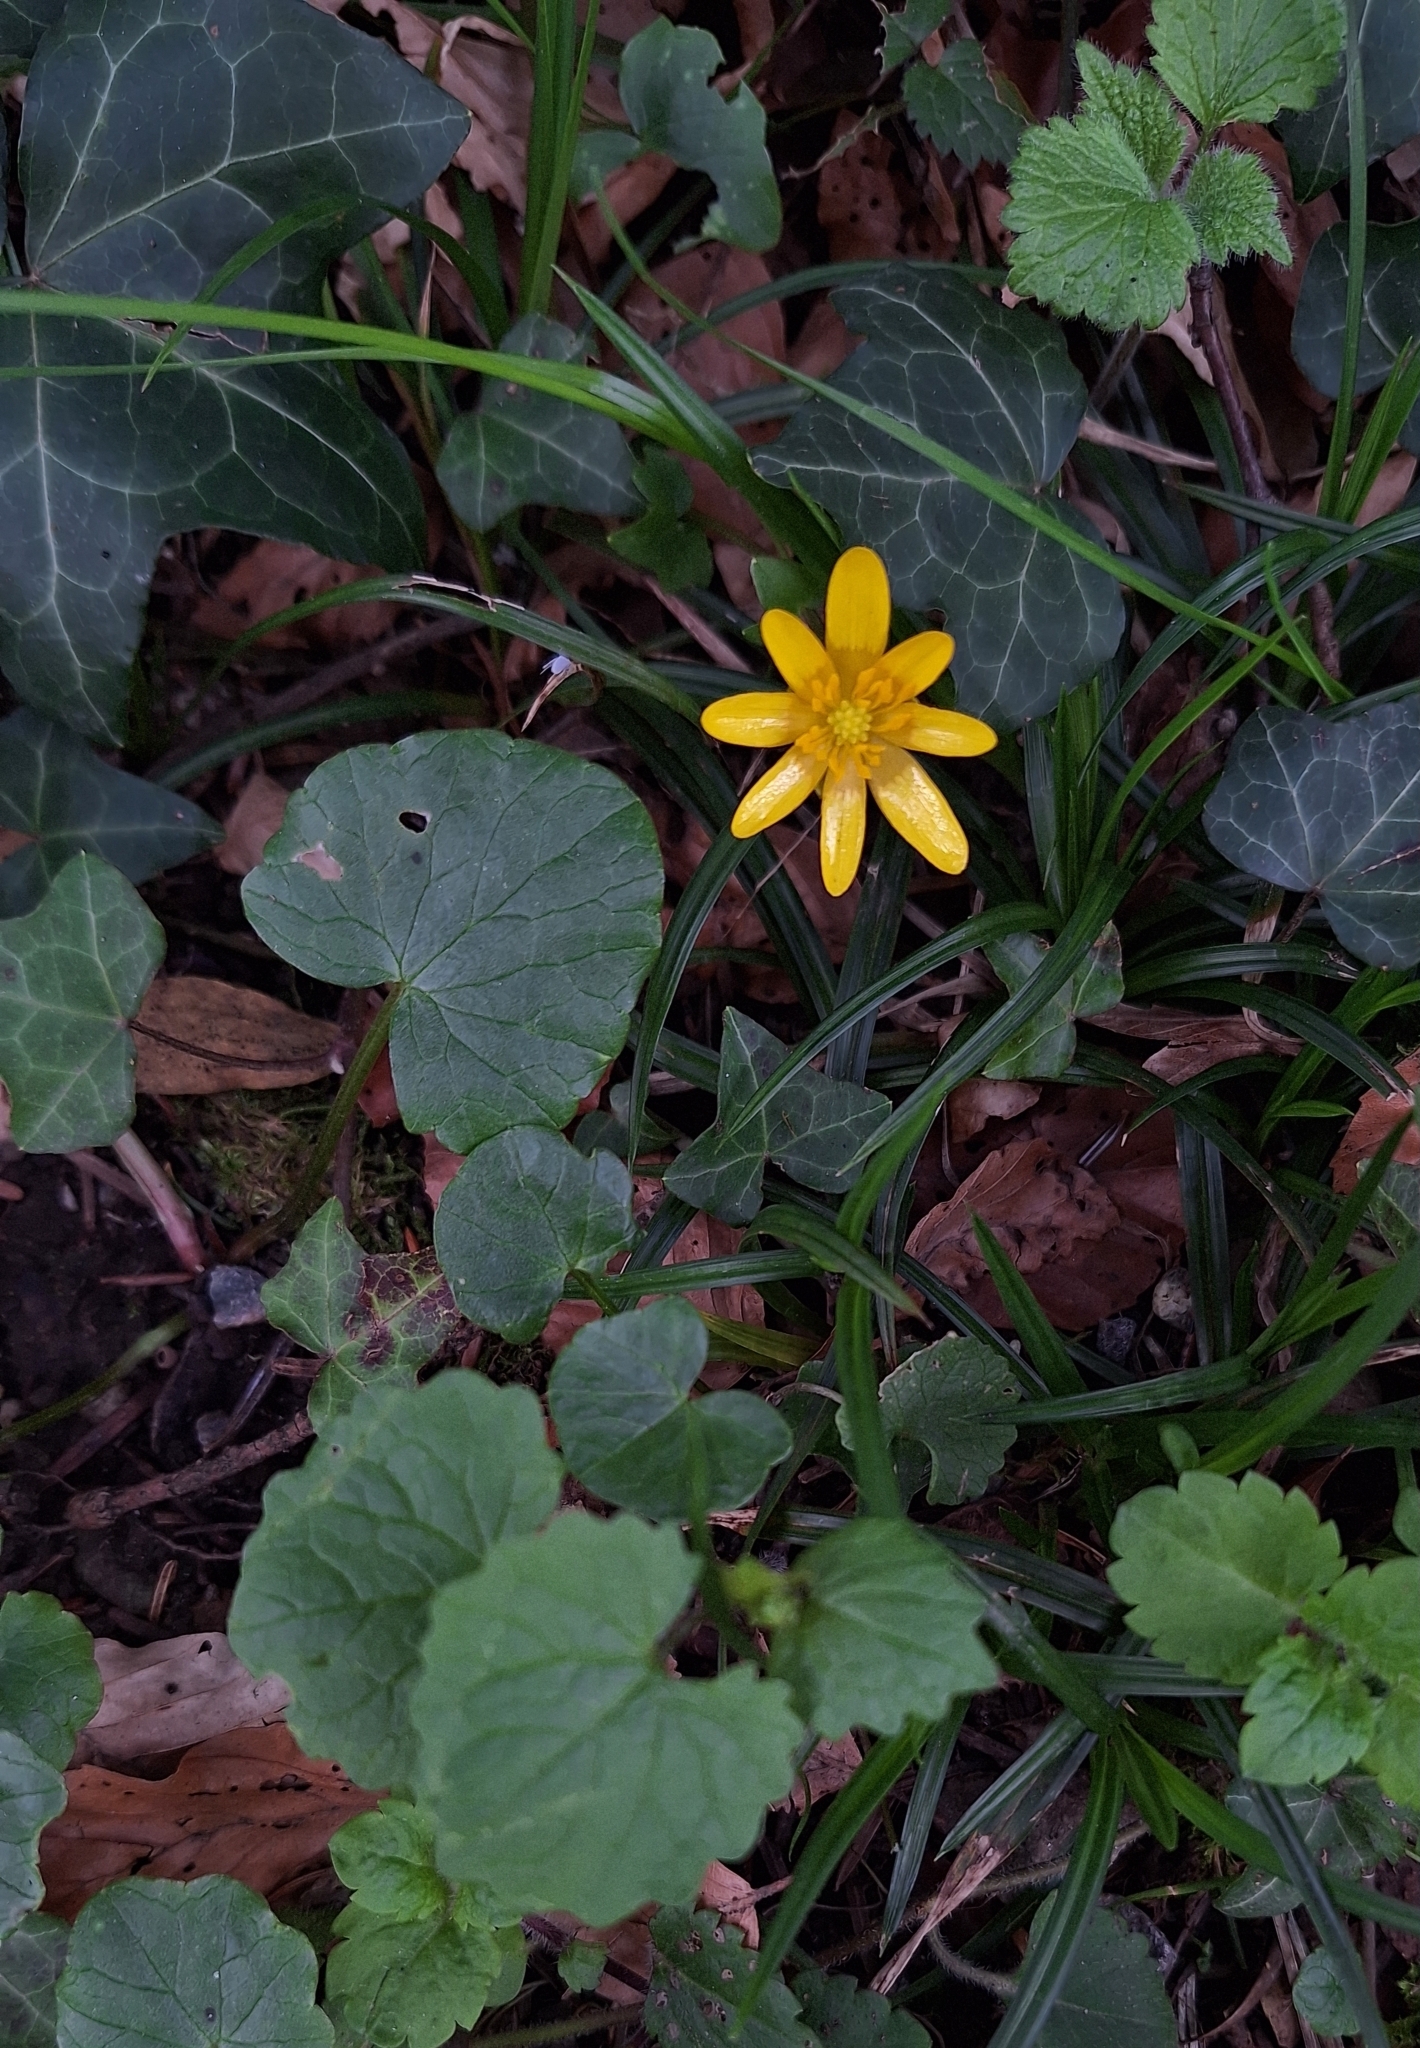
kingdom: Plantae
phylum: Tracheophyta
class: Magnoliopsida
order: Ranunculales
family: Ranunculaceae
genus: Ficaria
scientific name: Ficaria verna
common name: Lesser celandine
